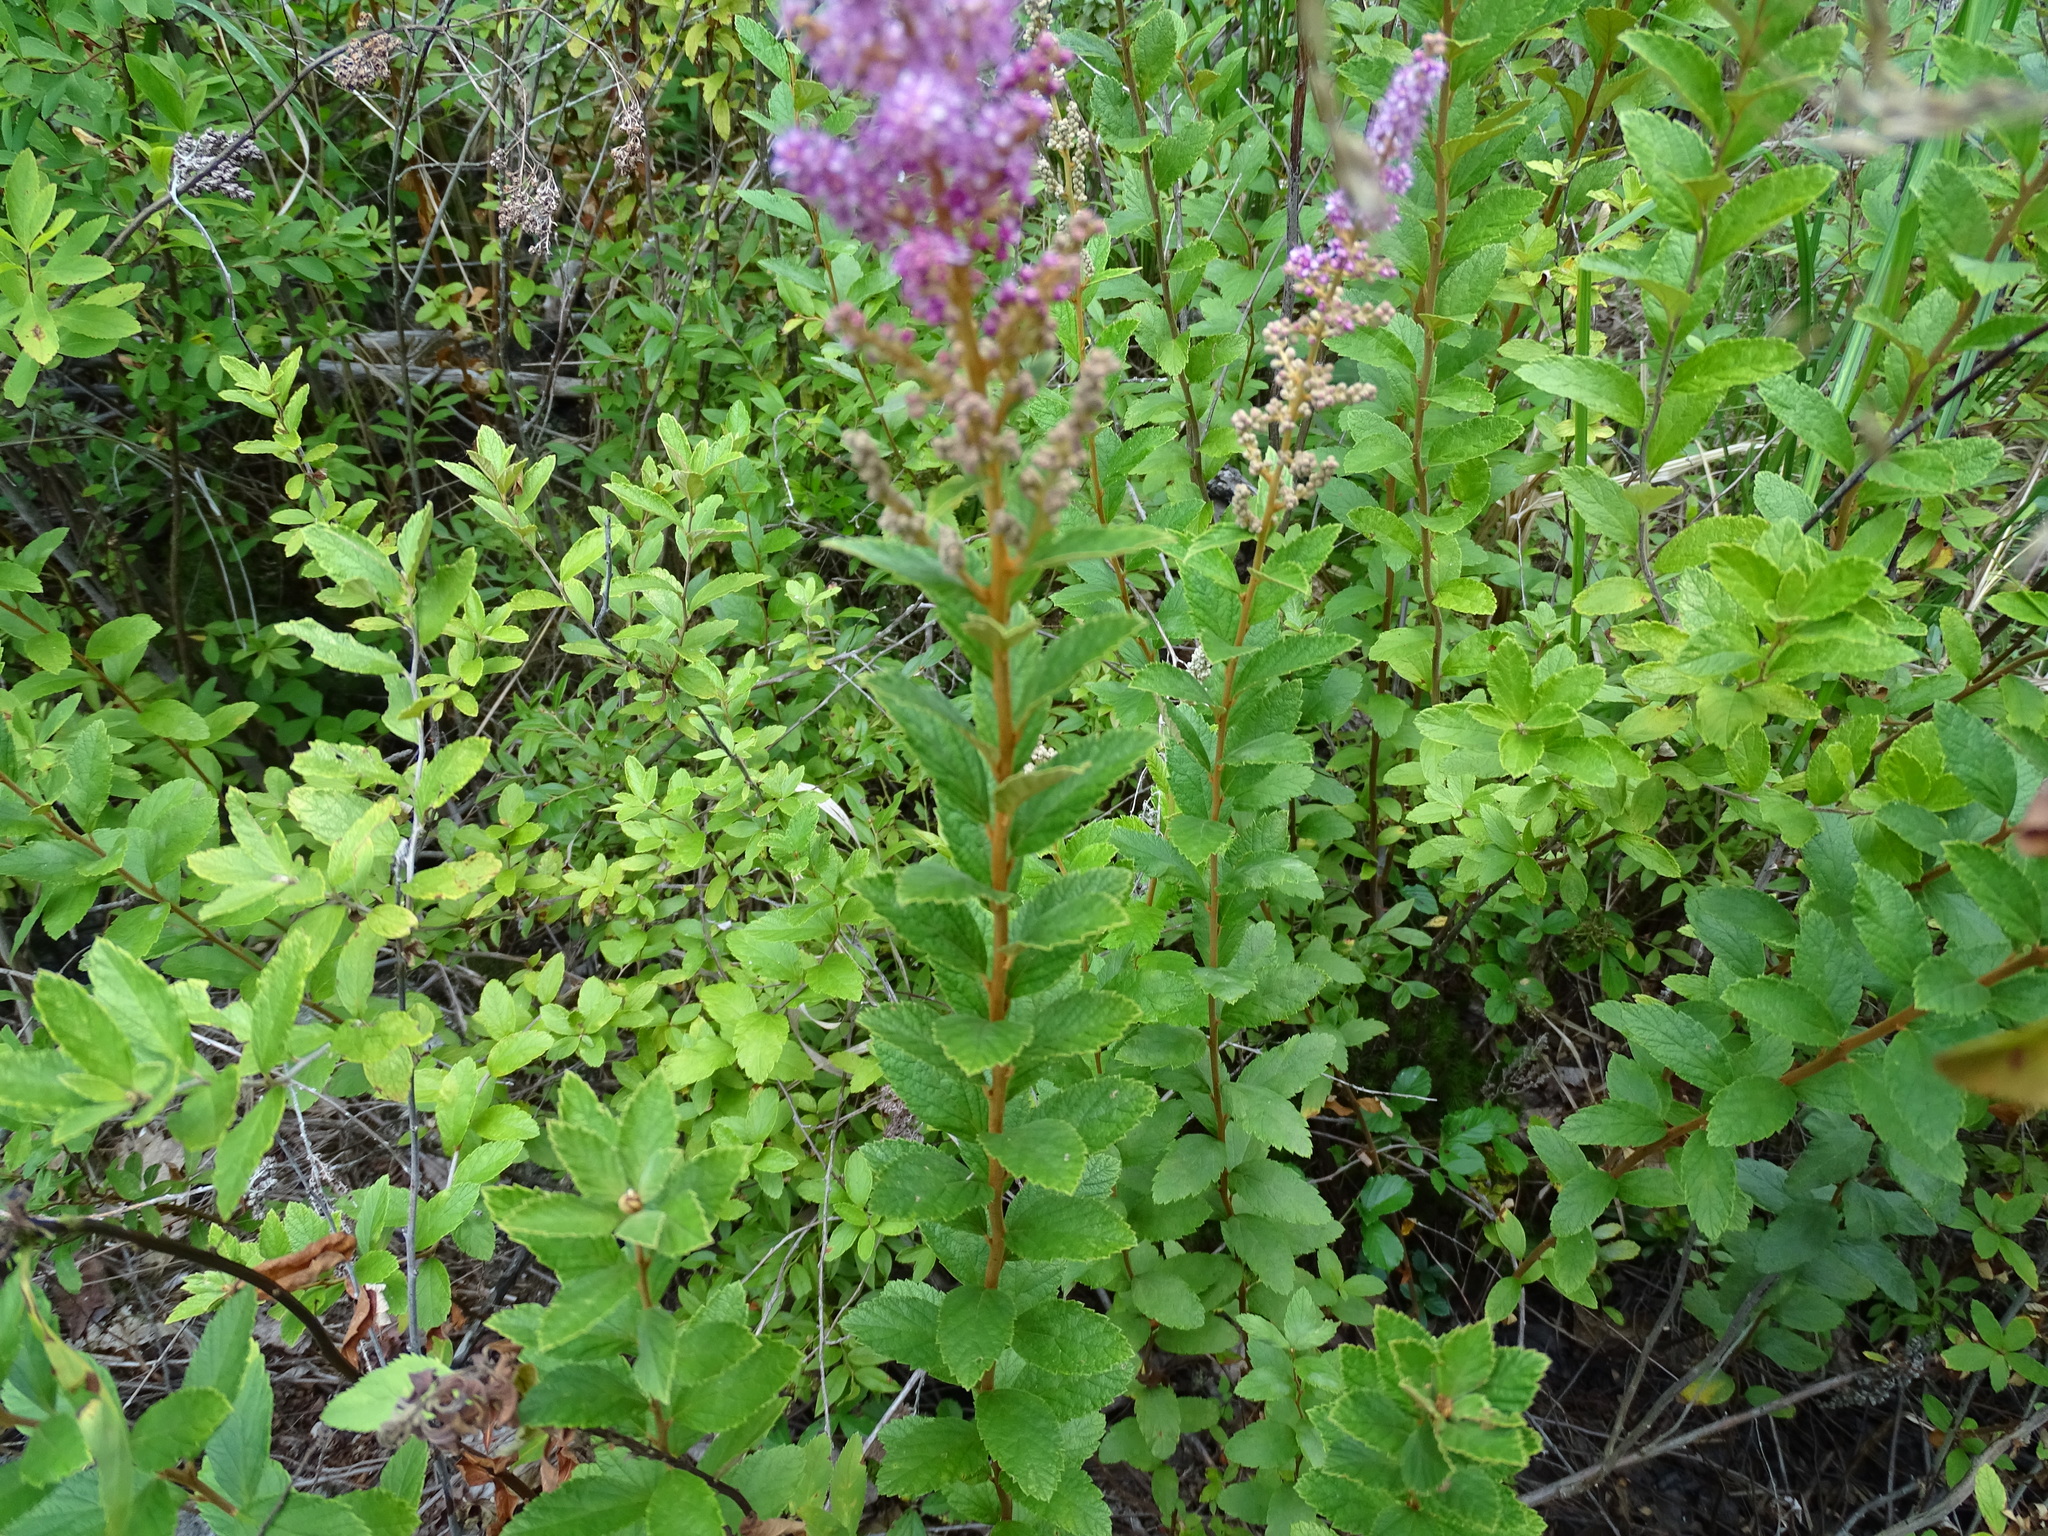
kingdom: Plantae
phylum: Tracheophyta
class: Magnoliopsida
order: Rosales
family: Rosaceae
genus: Spiraea
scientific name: Spiraea tomentosa
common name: Hardhack
